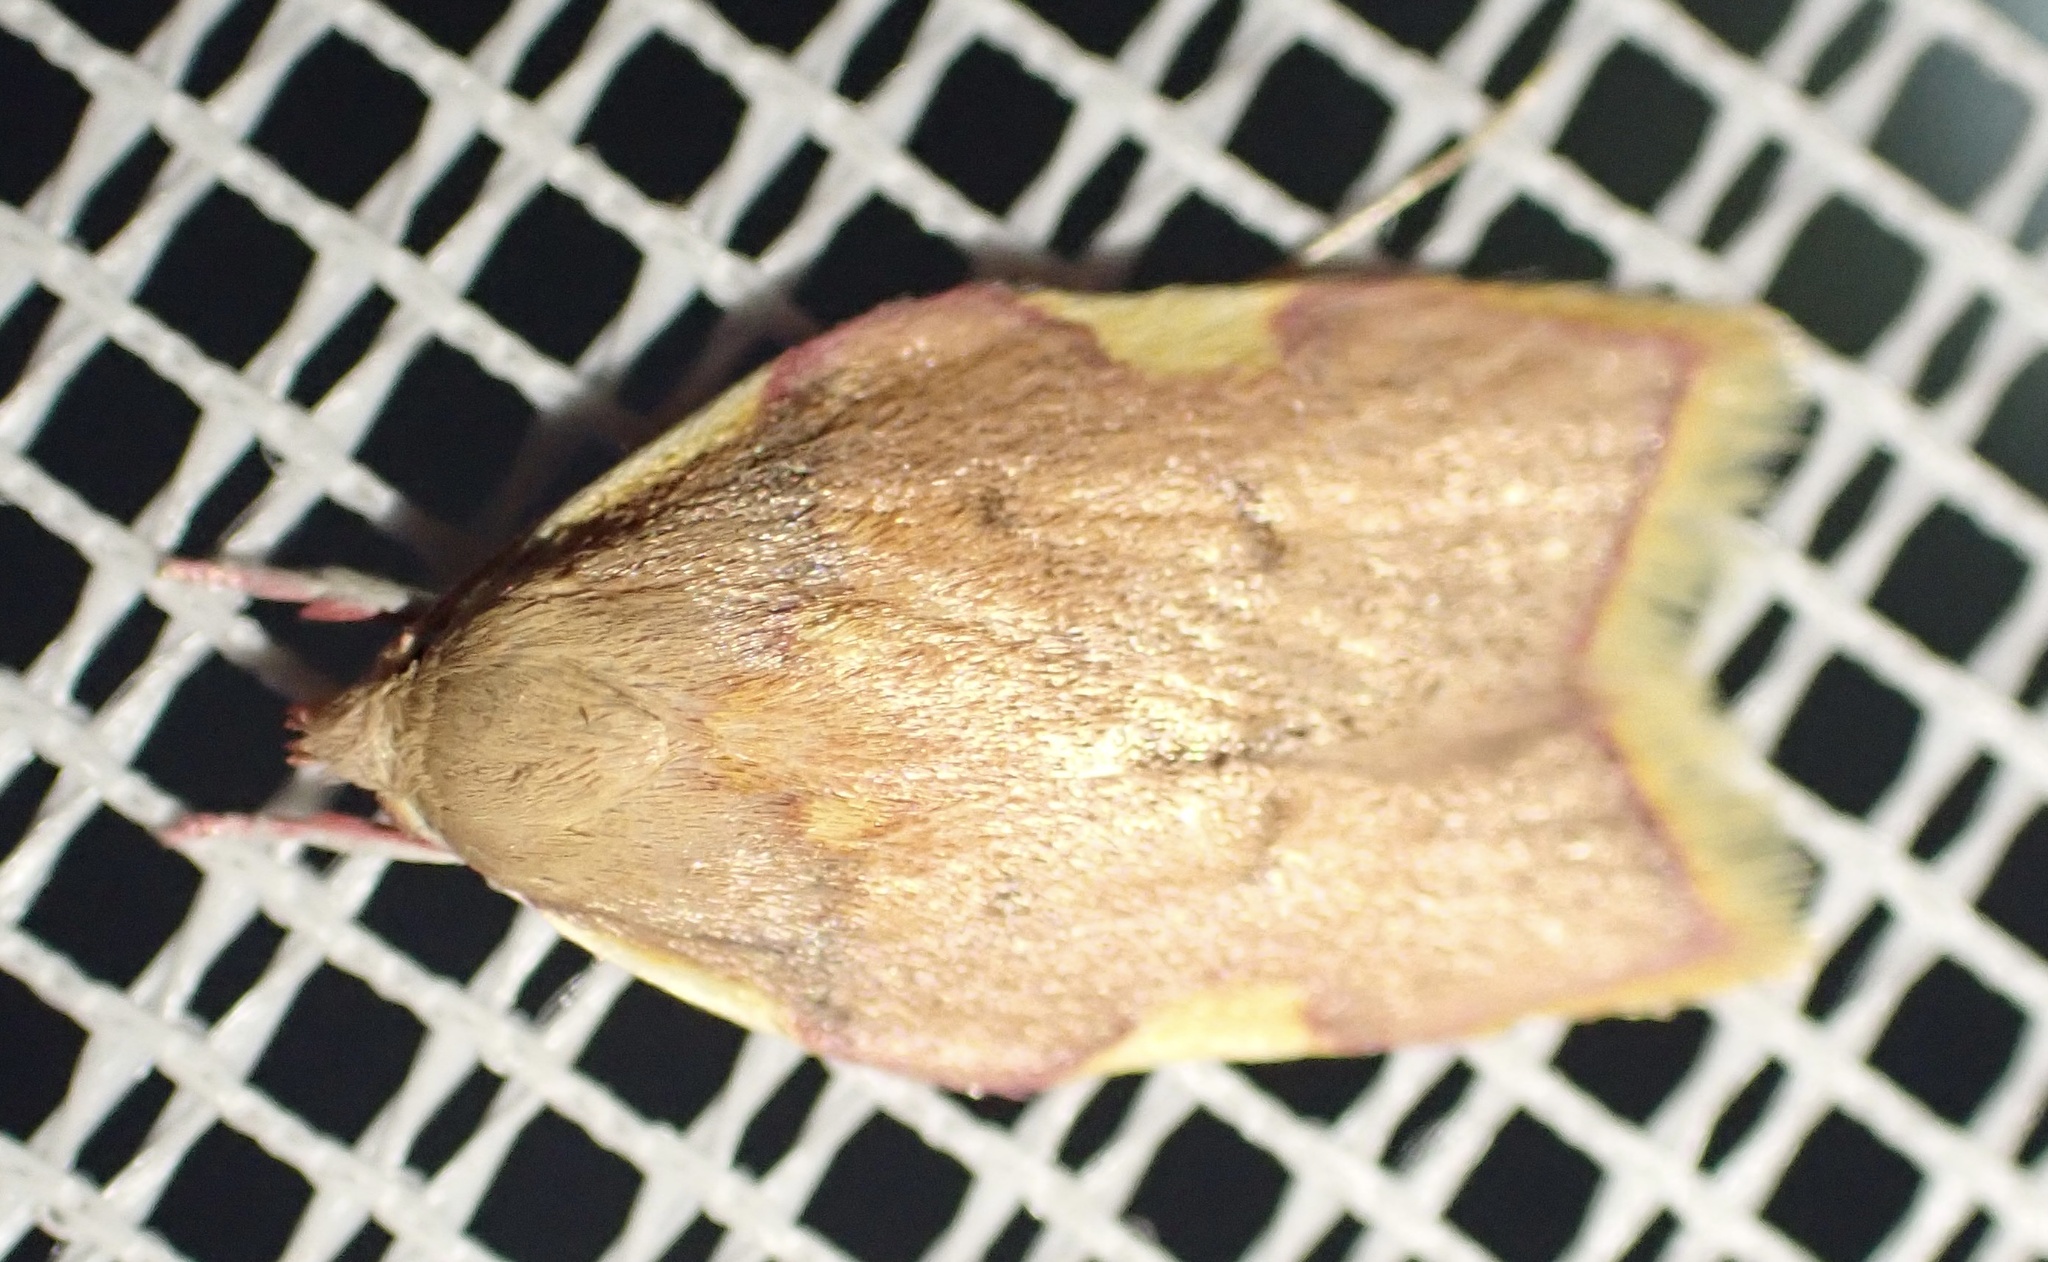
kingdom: Animalia
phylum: Arthropoda
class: Insecta
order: Lepidoptera
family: Peleopodidae
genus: Carcina
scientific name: Carcina quercana
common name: Moth
